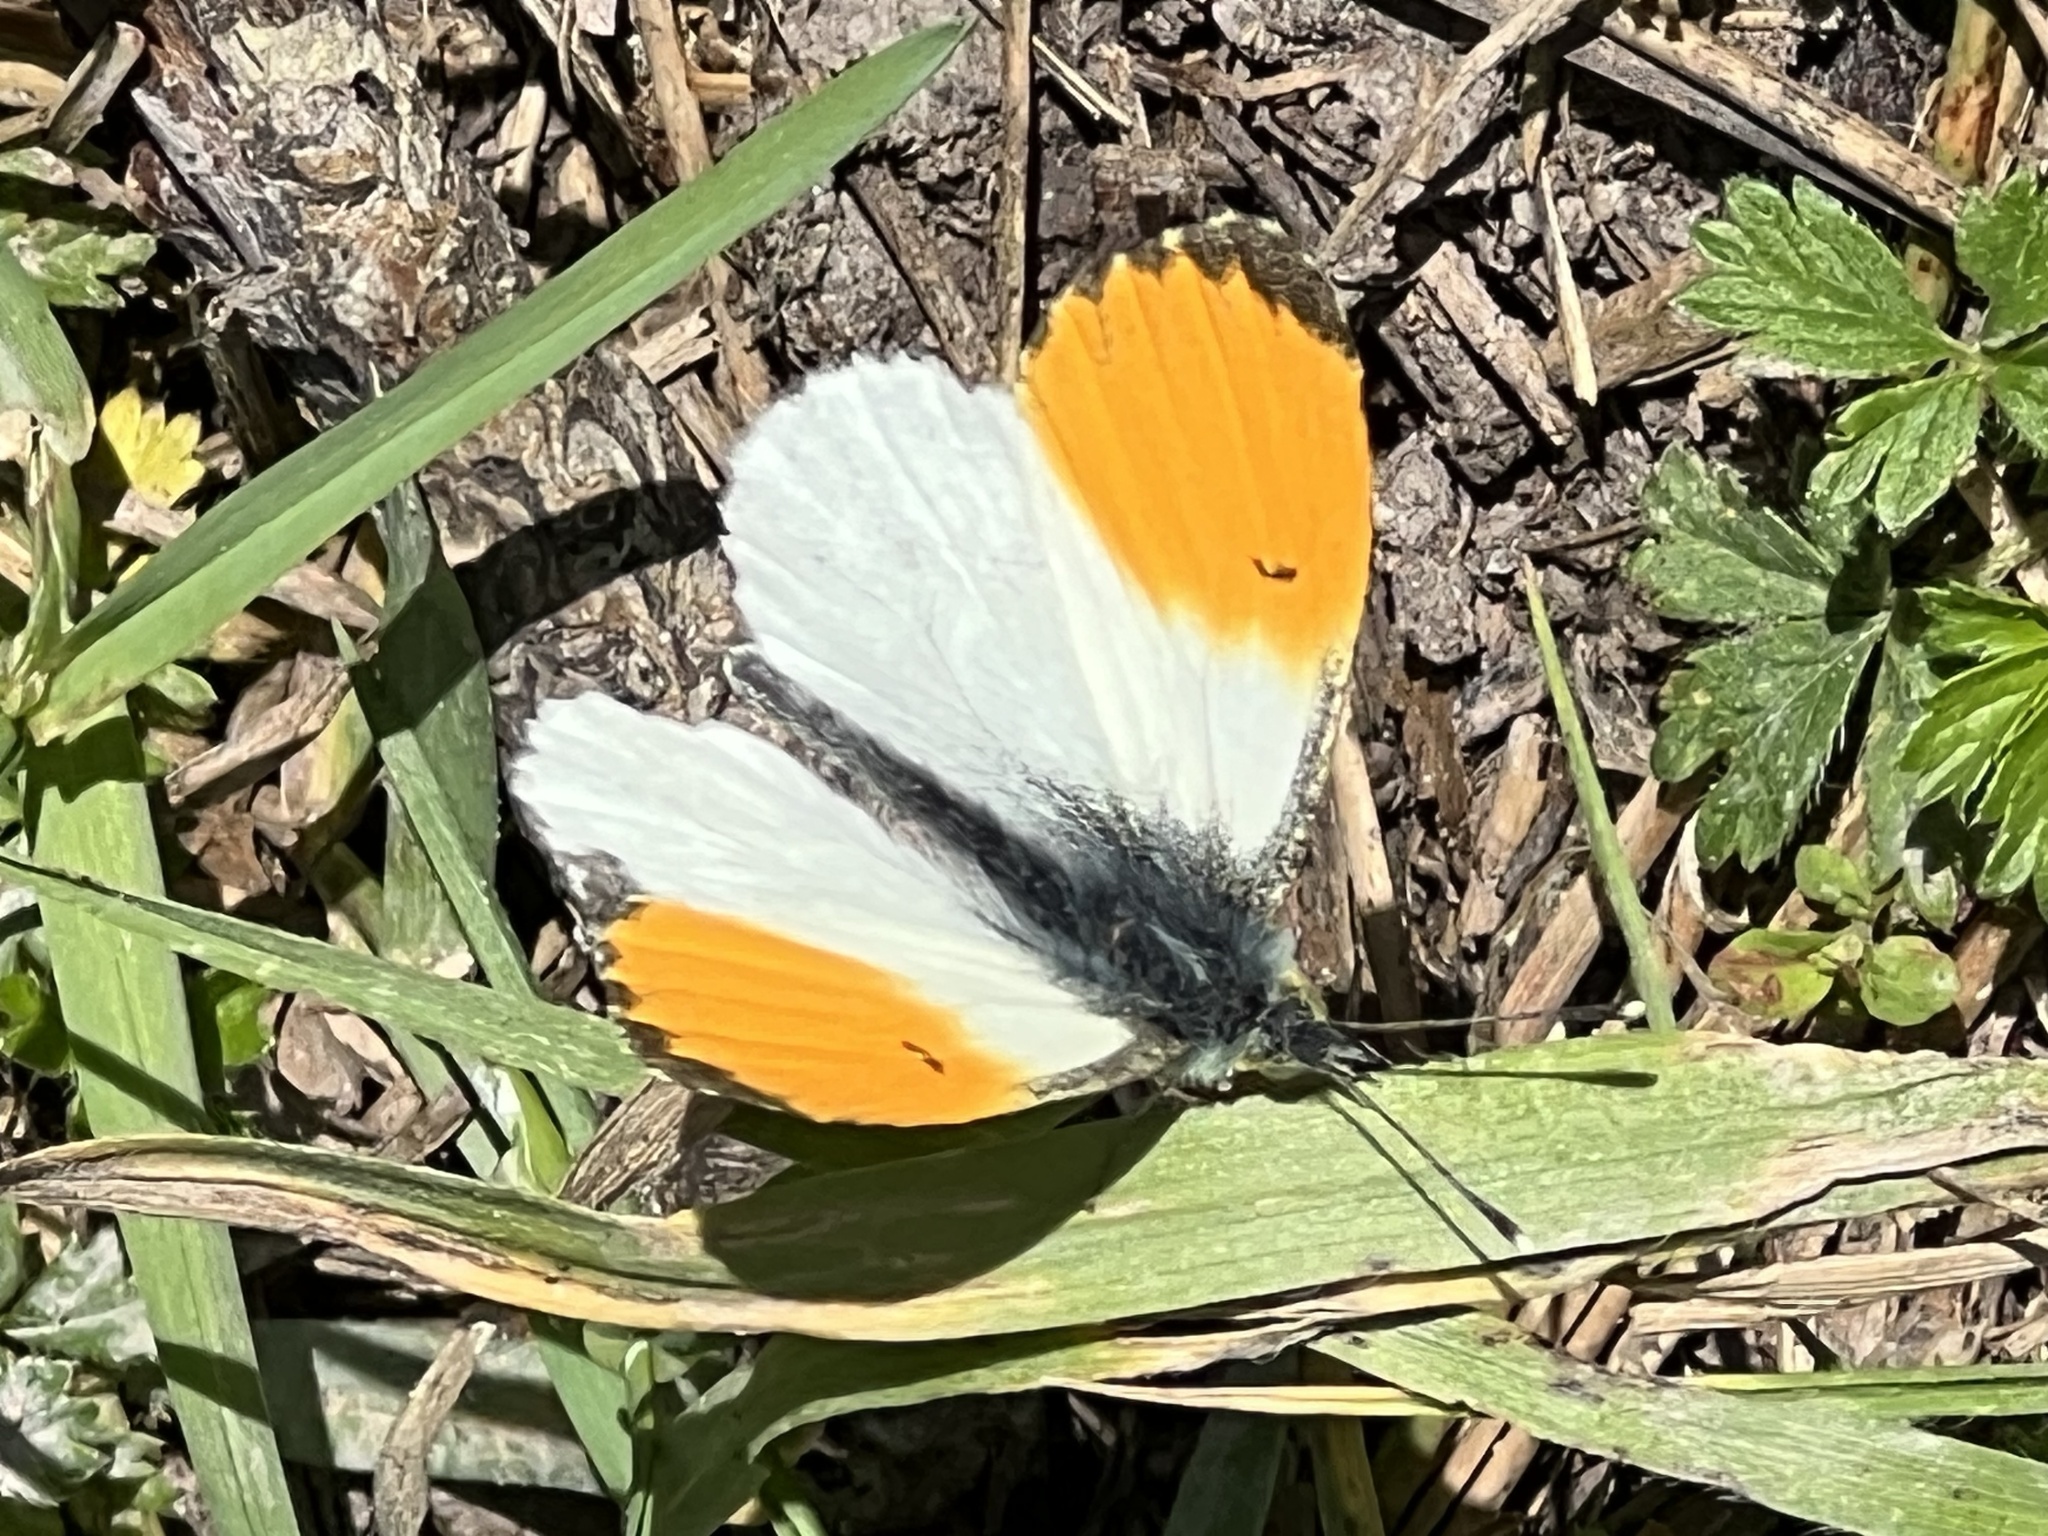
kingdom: Animalia
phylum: Arthropoda
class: Insecta
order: Lepidoptera
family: Pieridae
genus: Anthocharis
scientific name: Anthocharis cardamines
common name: Orange-tip
